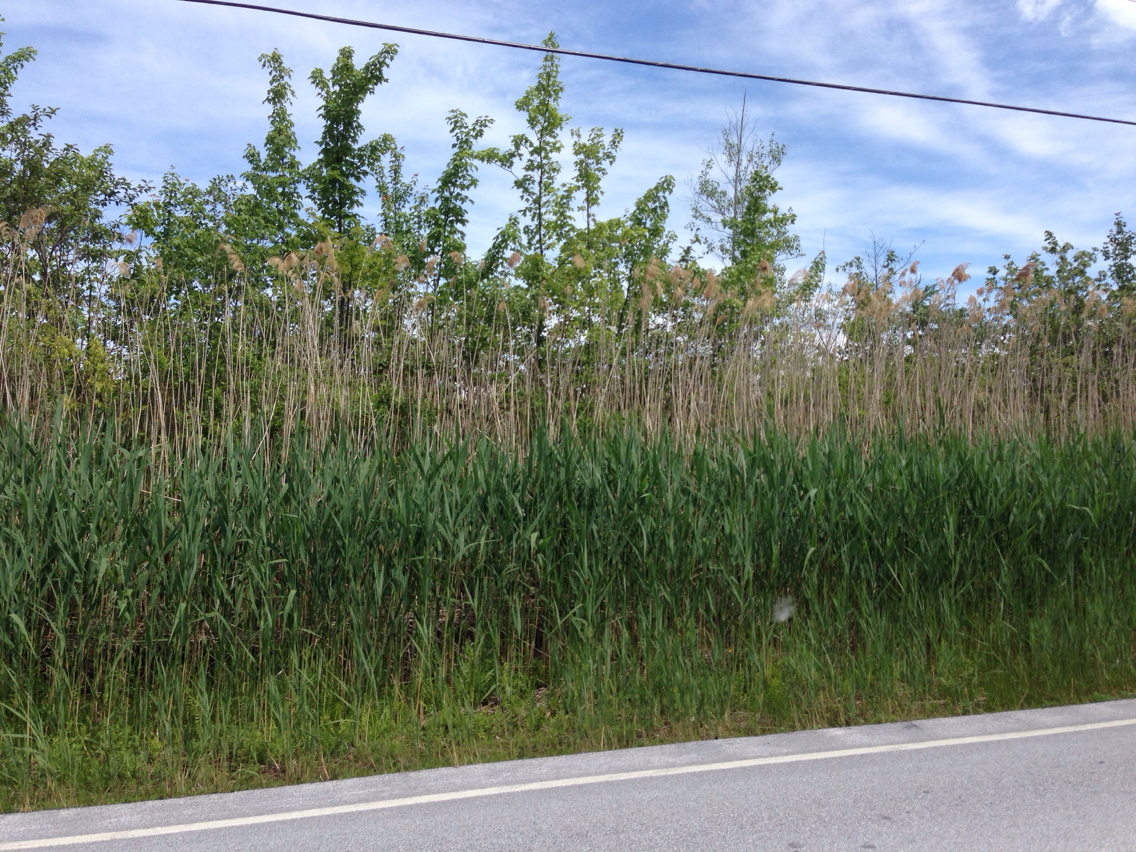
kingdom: Plantae
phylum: Tracheophyta
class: Liliopsida
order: Poales
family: Poaceae
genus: Phragmites
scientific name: Phragmites australis
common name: Common reed
